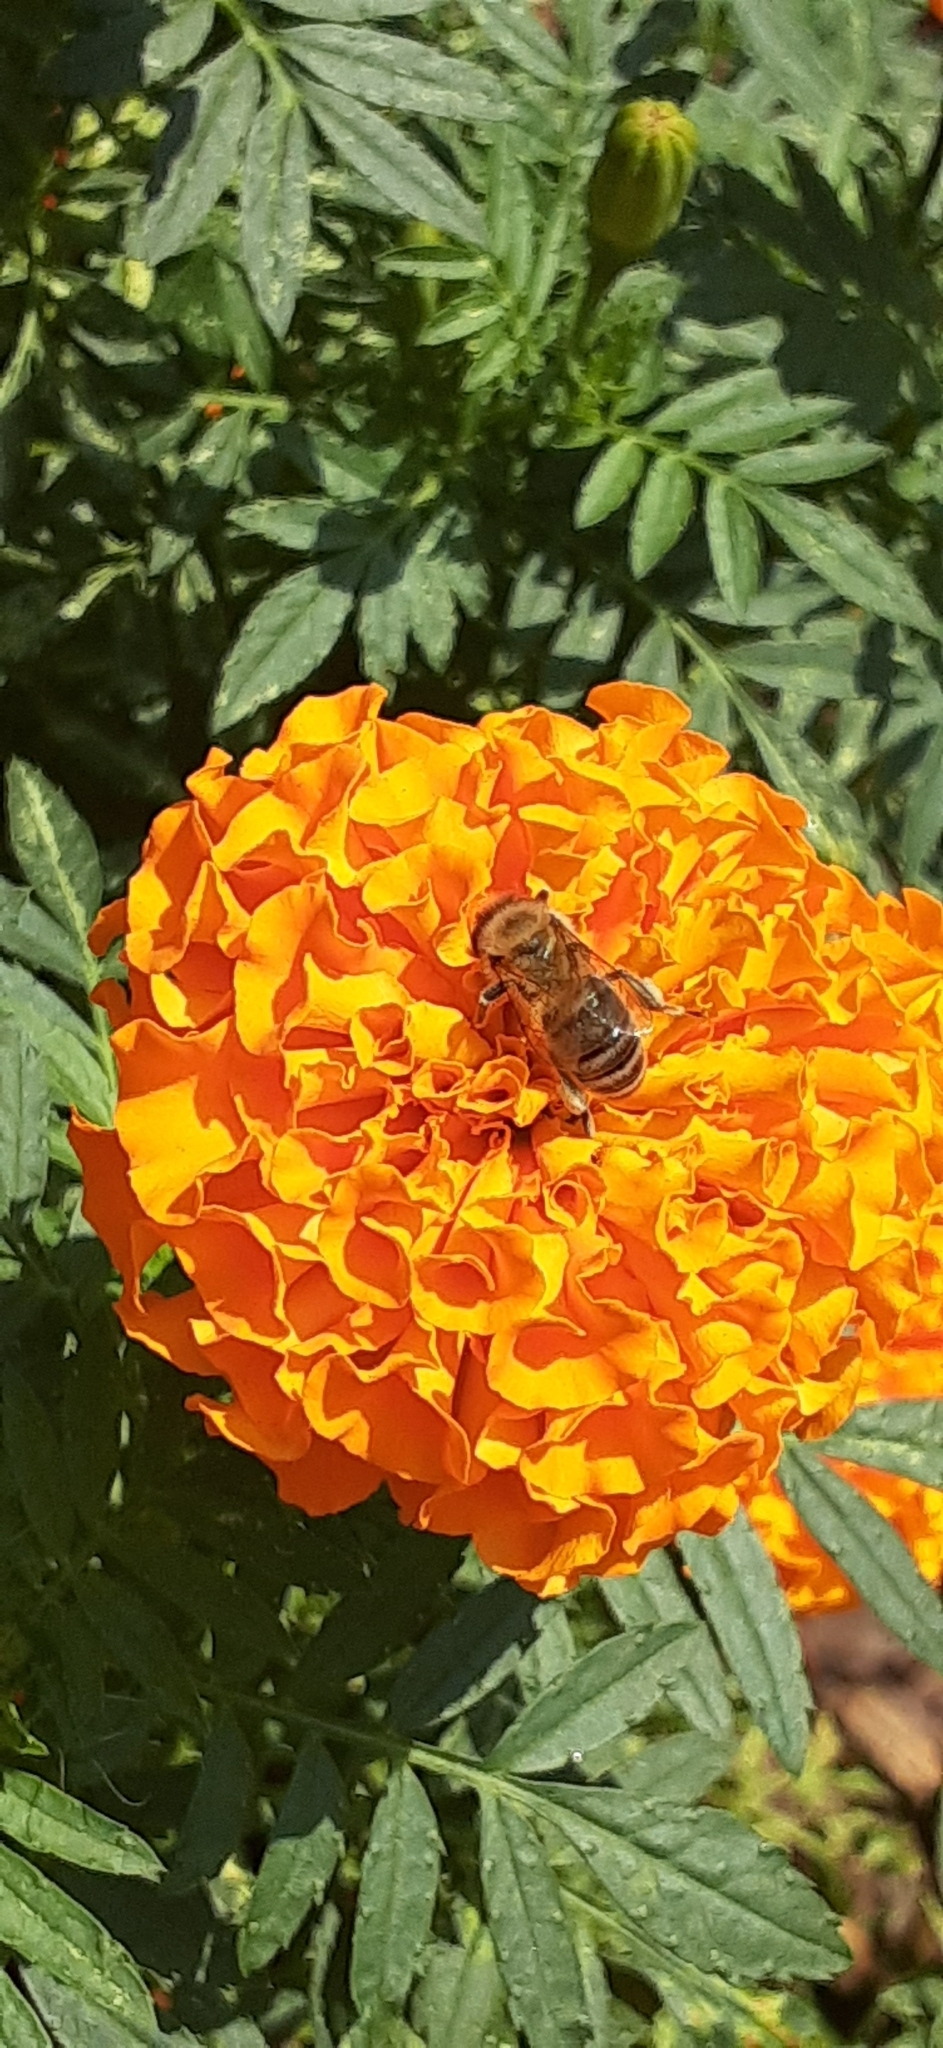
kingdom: Animalia
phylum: Arthropoda
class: Insecta
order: Hymenoptera
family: Apidae
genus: Apis
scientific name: Apis mellifera
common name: Honey bee
